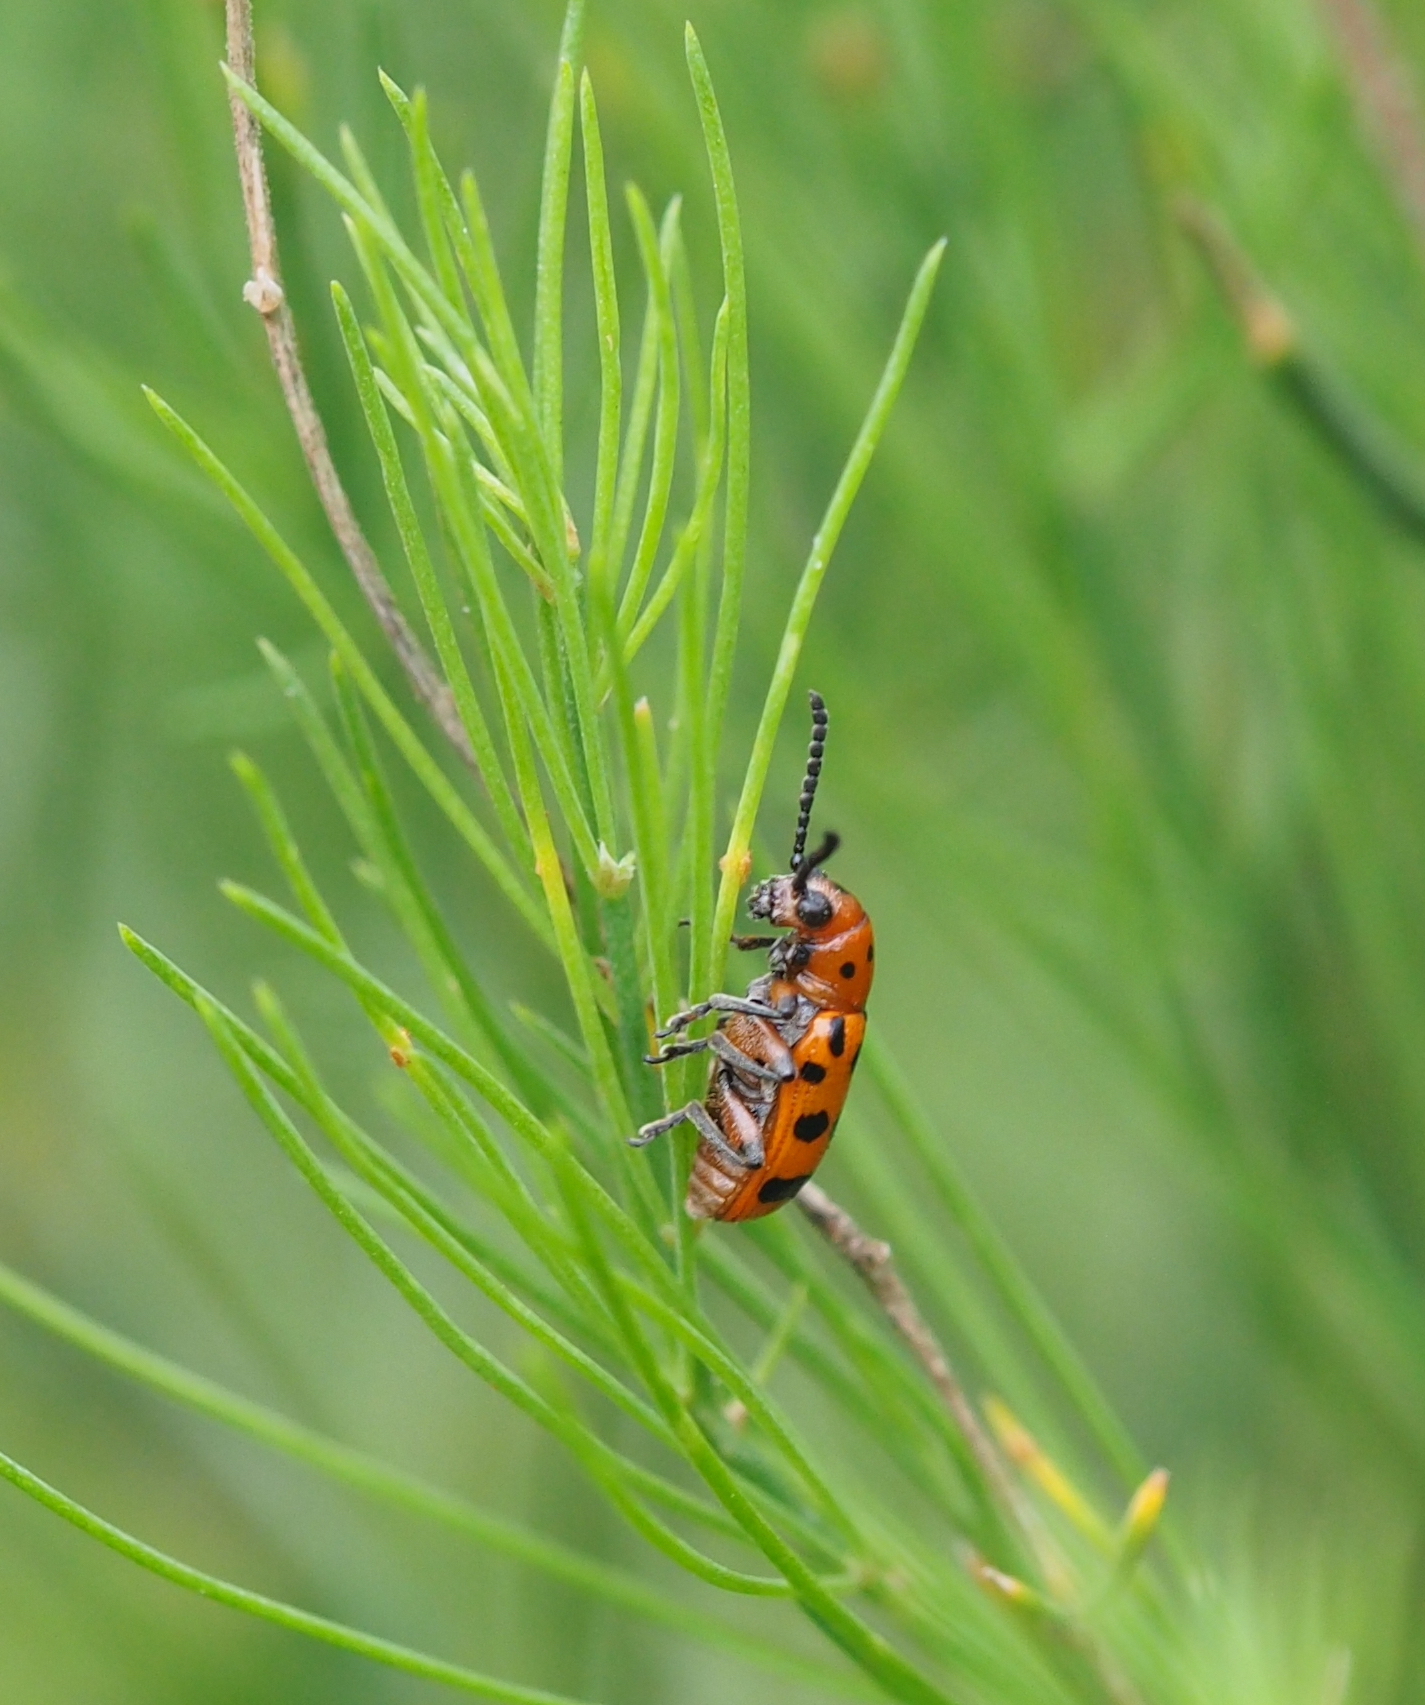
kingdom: Animalia
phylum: Arthropoda
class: Insecta
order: Coleoptera
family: Chrysomelidae
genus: Crioceris
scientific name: Crioceris quatuordecimpunctata
